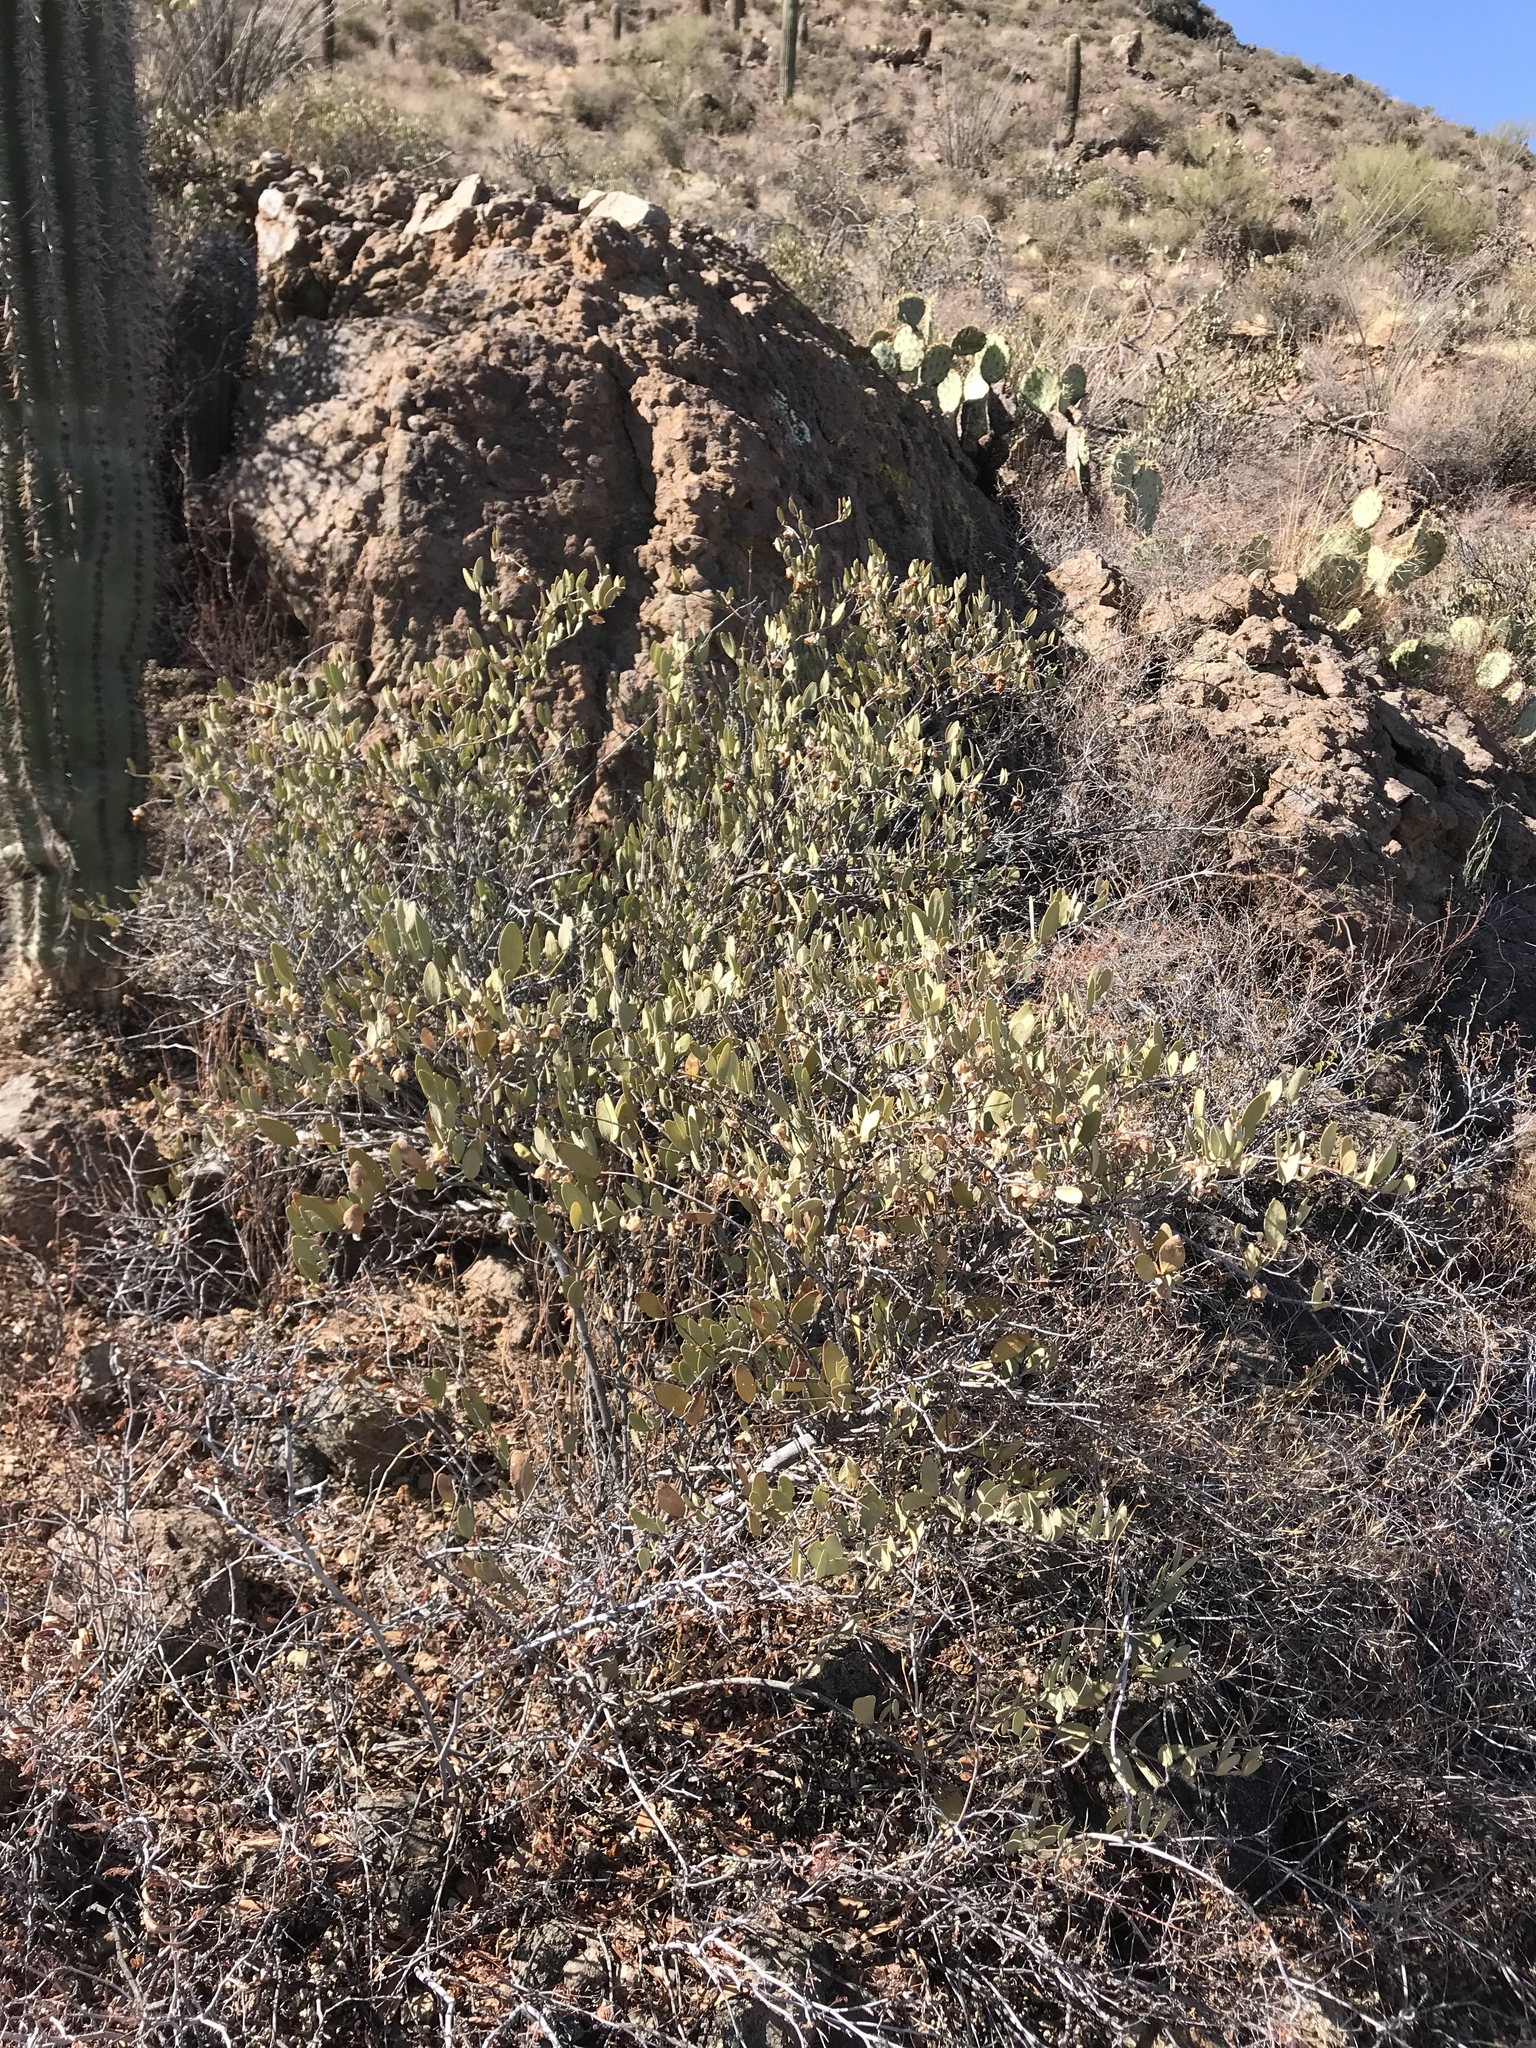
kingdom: Plantae
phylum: Tracheophyta
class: Magnoliopsida
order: Caryophyllales
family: Simmondsiaceae
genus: Simmondsia
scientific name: Simmondsia chinensis
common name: Jojoba
